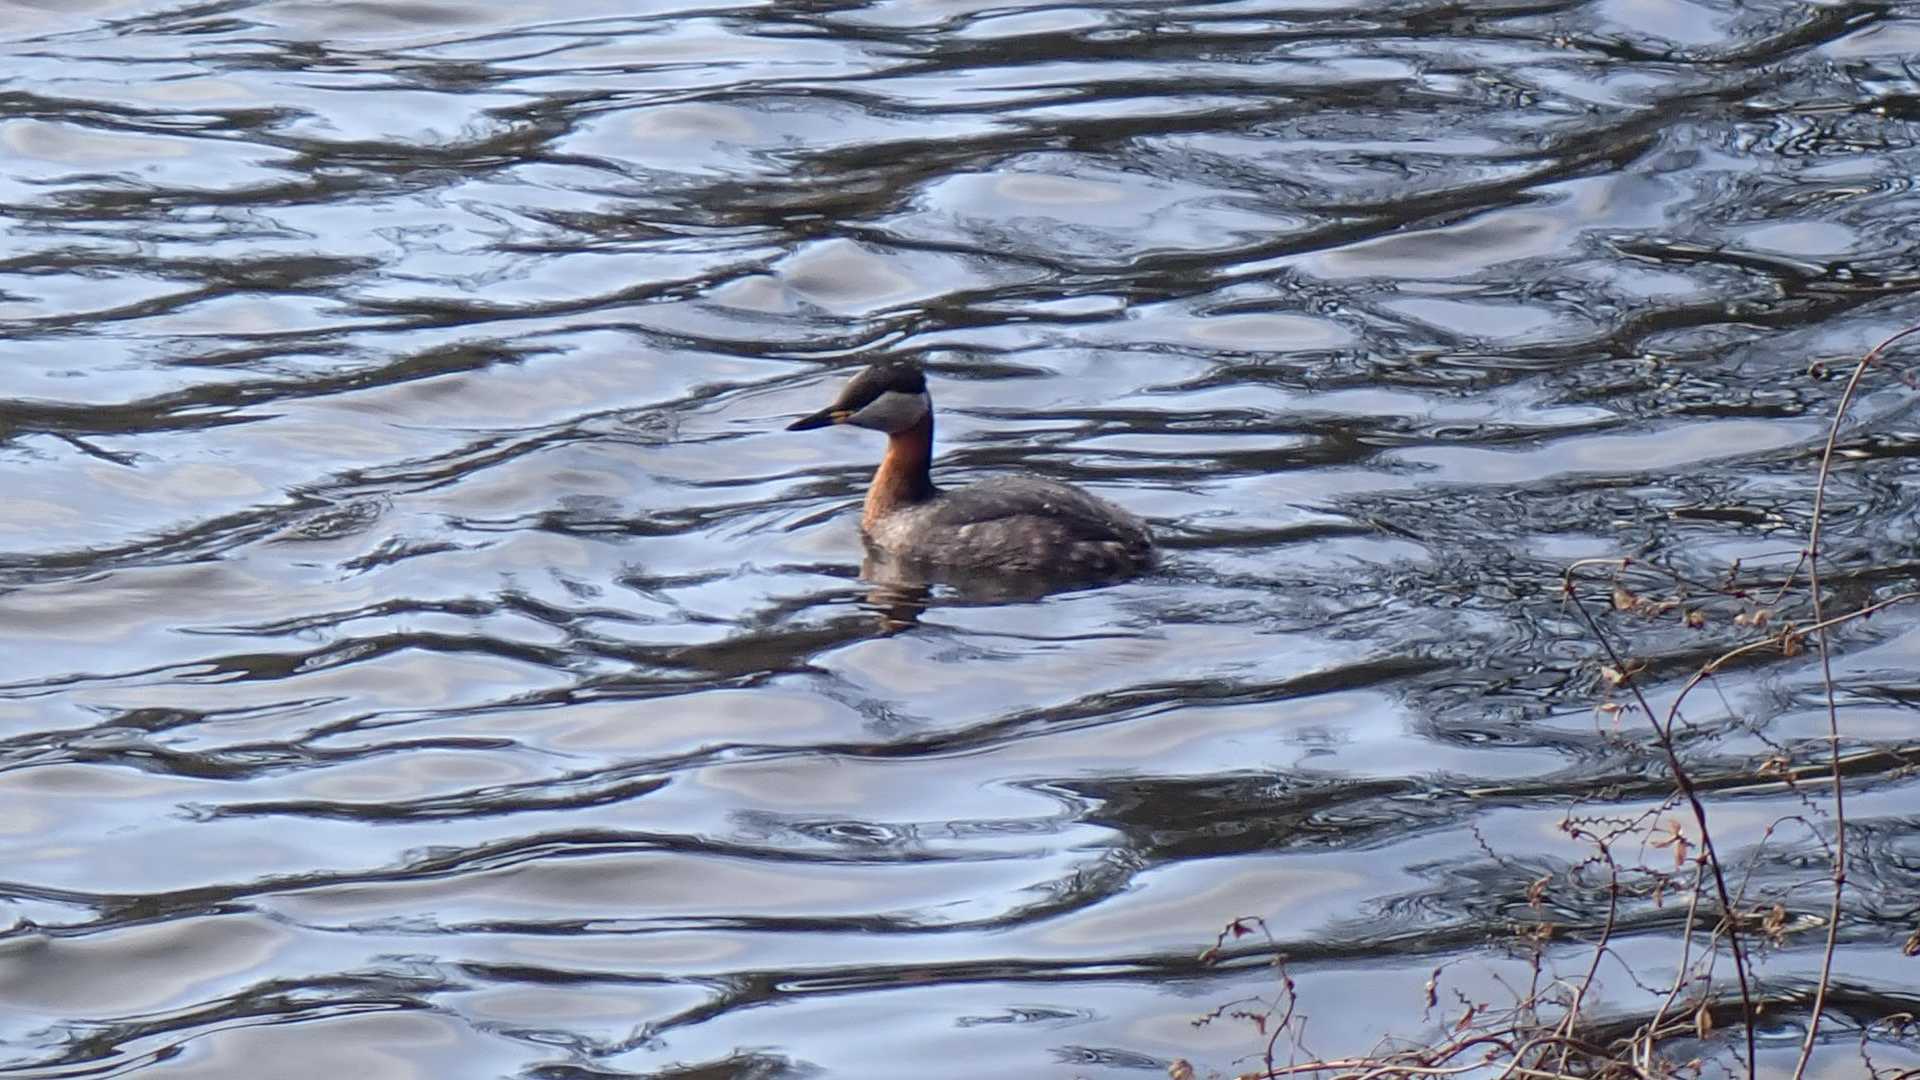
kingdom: Animalia
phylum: Chordata
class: Aves
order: Podicipediformes
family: Podicipedidae
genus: Podiceps
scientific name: Podiceps grisegena
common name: Red-necked grebe
